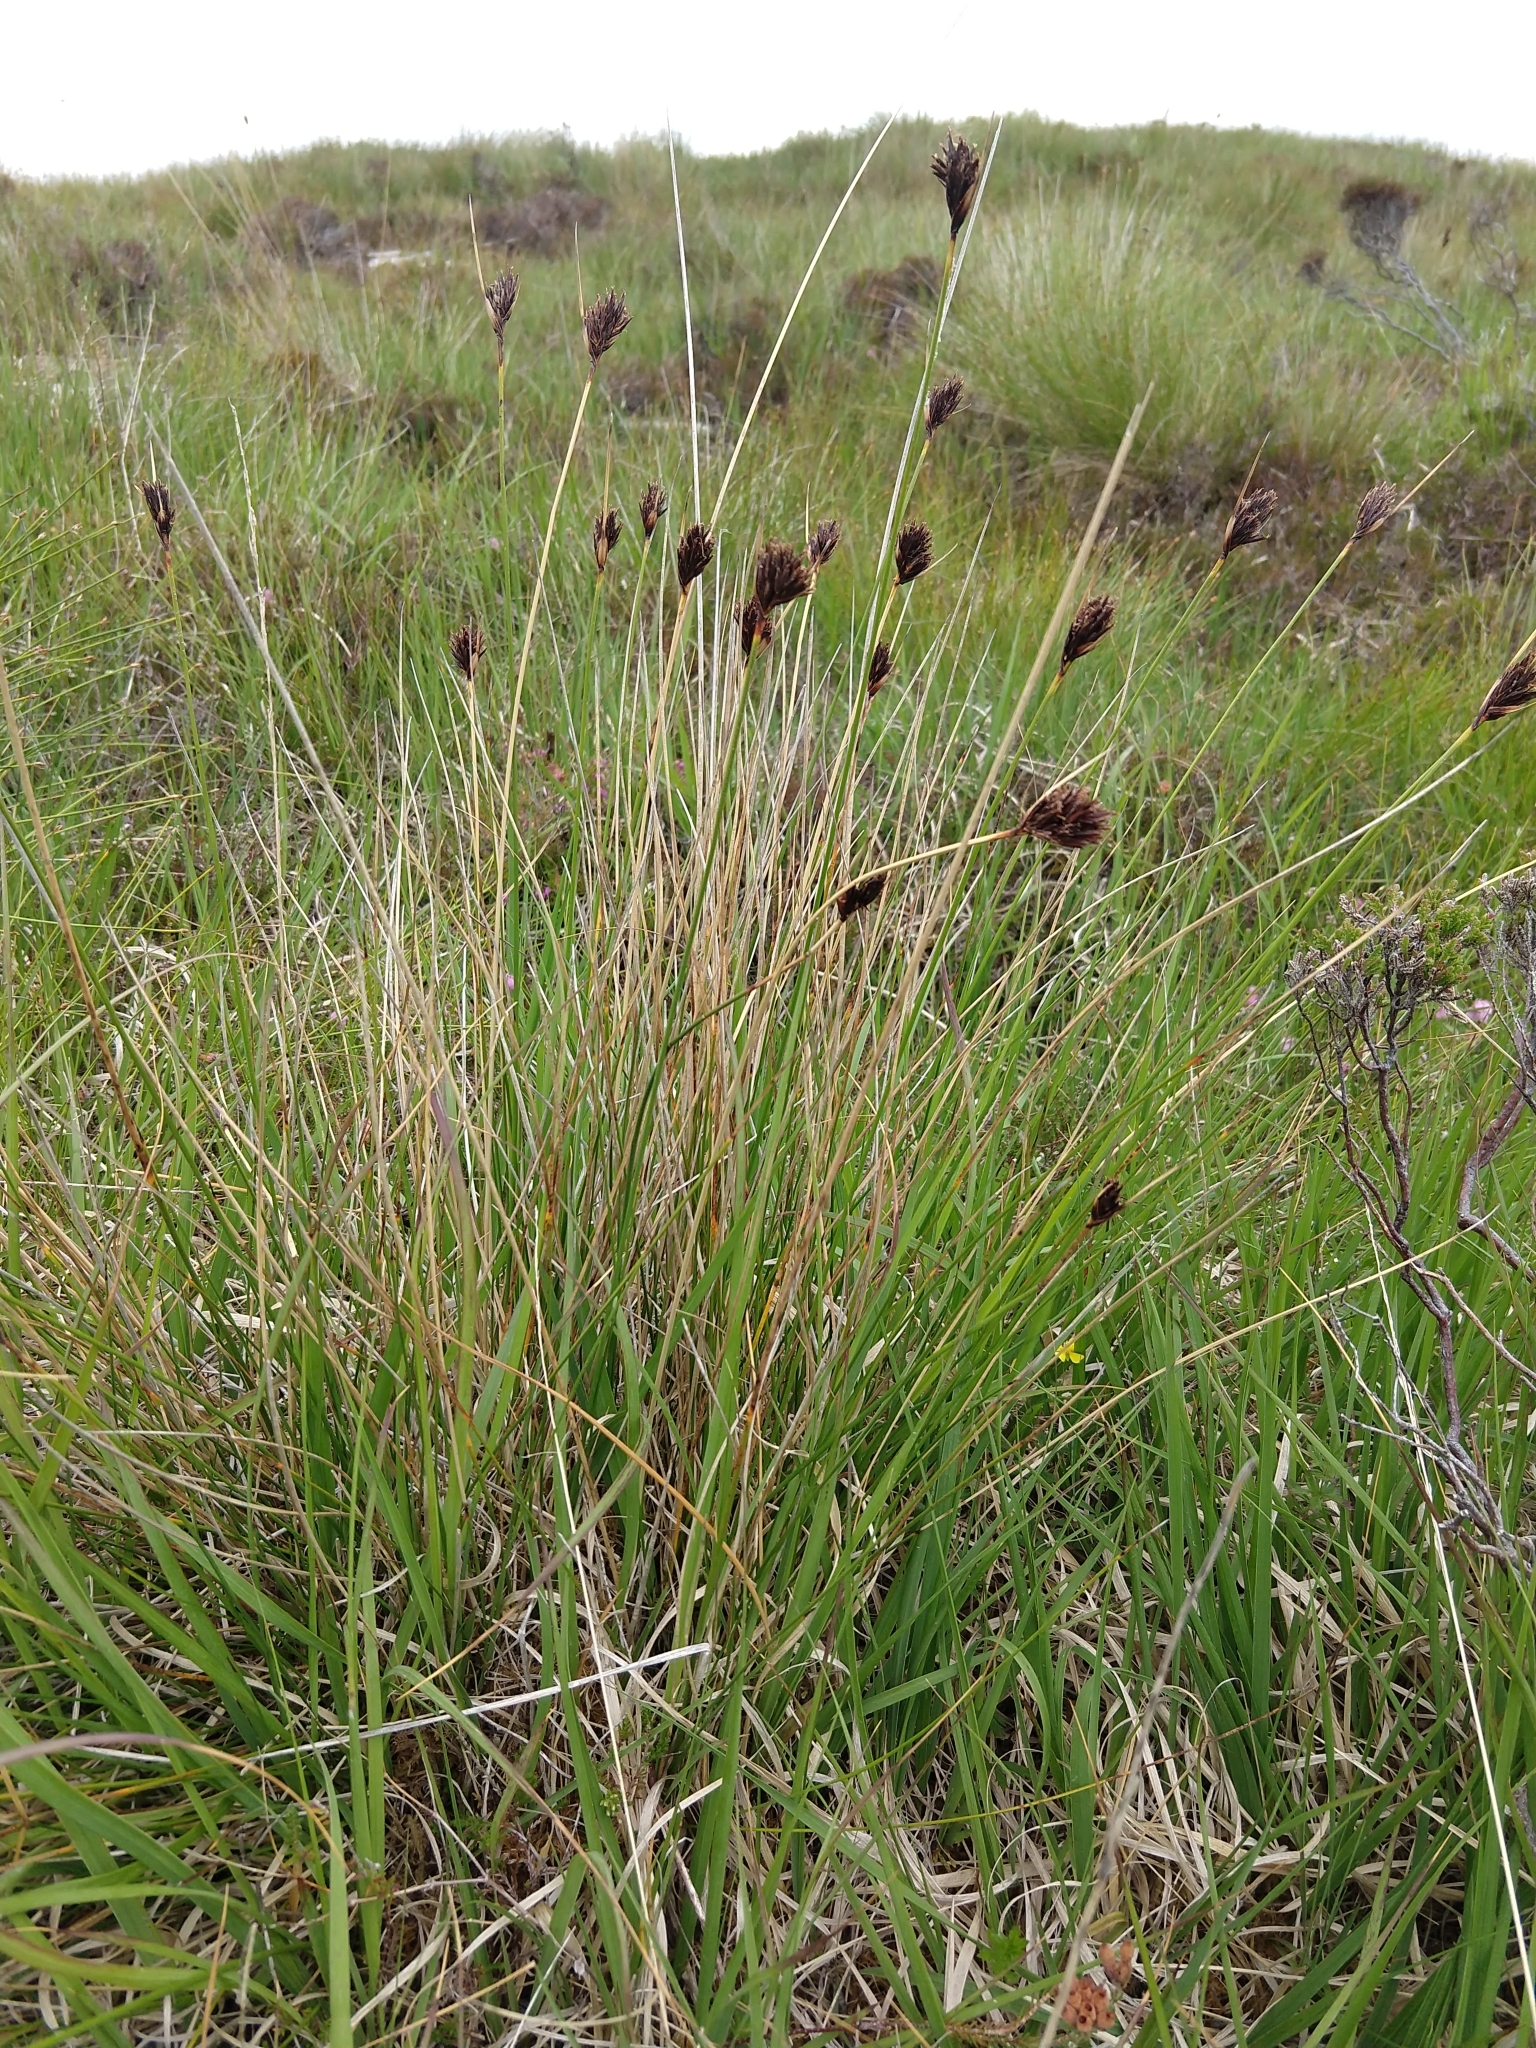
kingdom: Plantae
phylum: Tracheophyta
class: Liliopsida
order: Poales
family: Cyperaceae
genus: Schoenus
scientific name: Schoenus nigricans
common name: Black bog-rush
